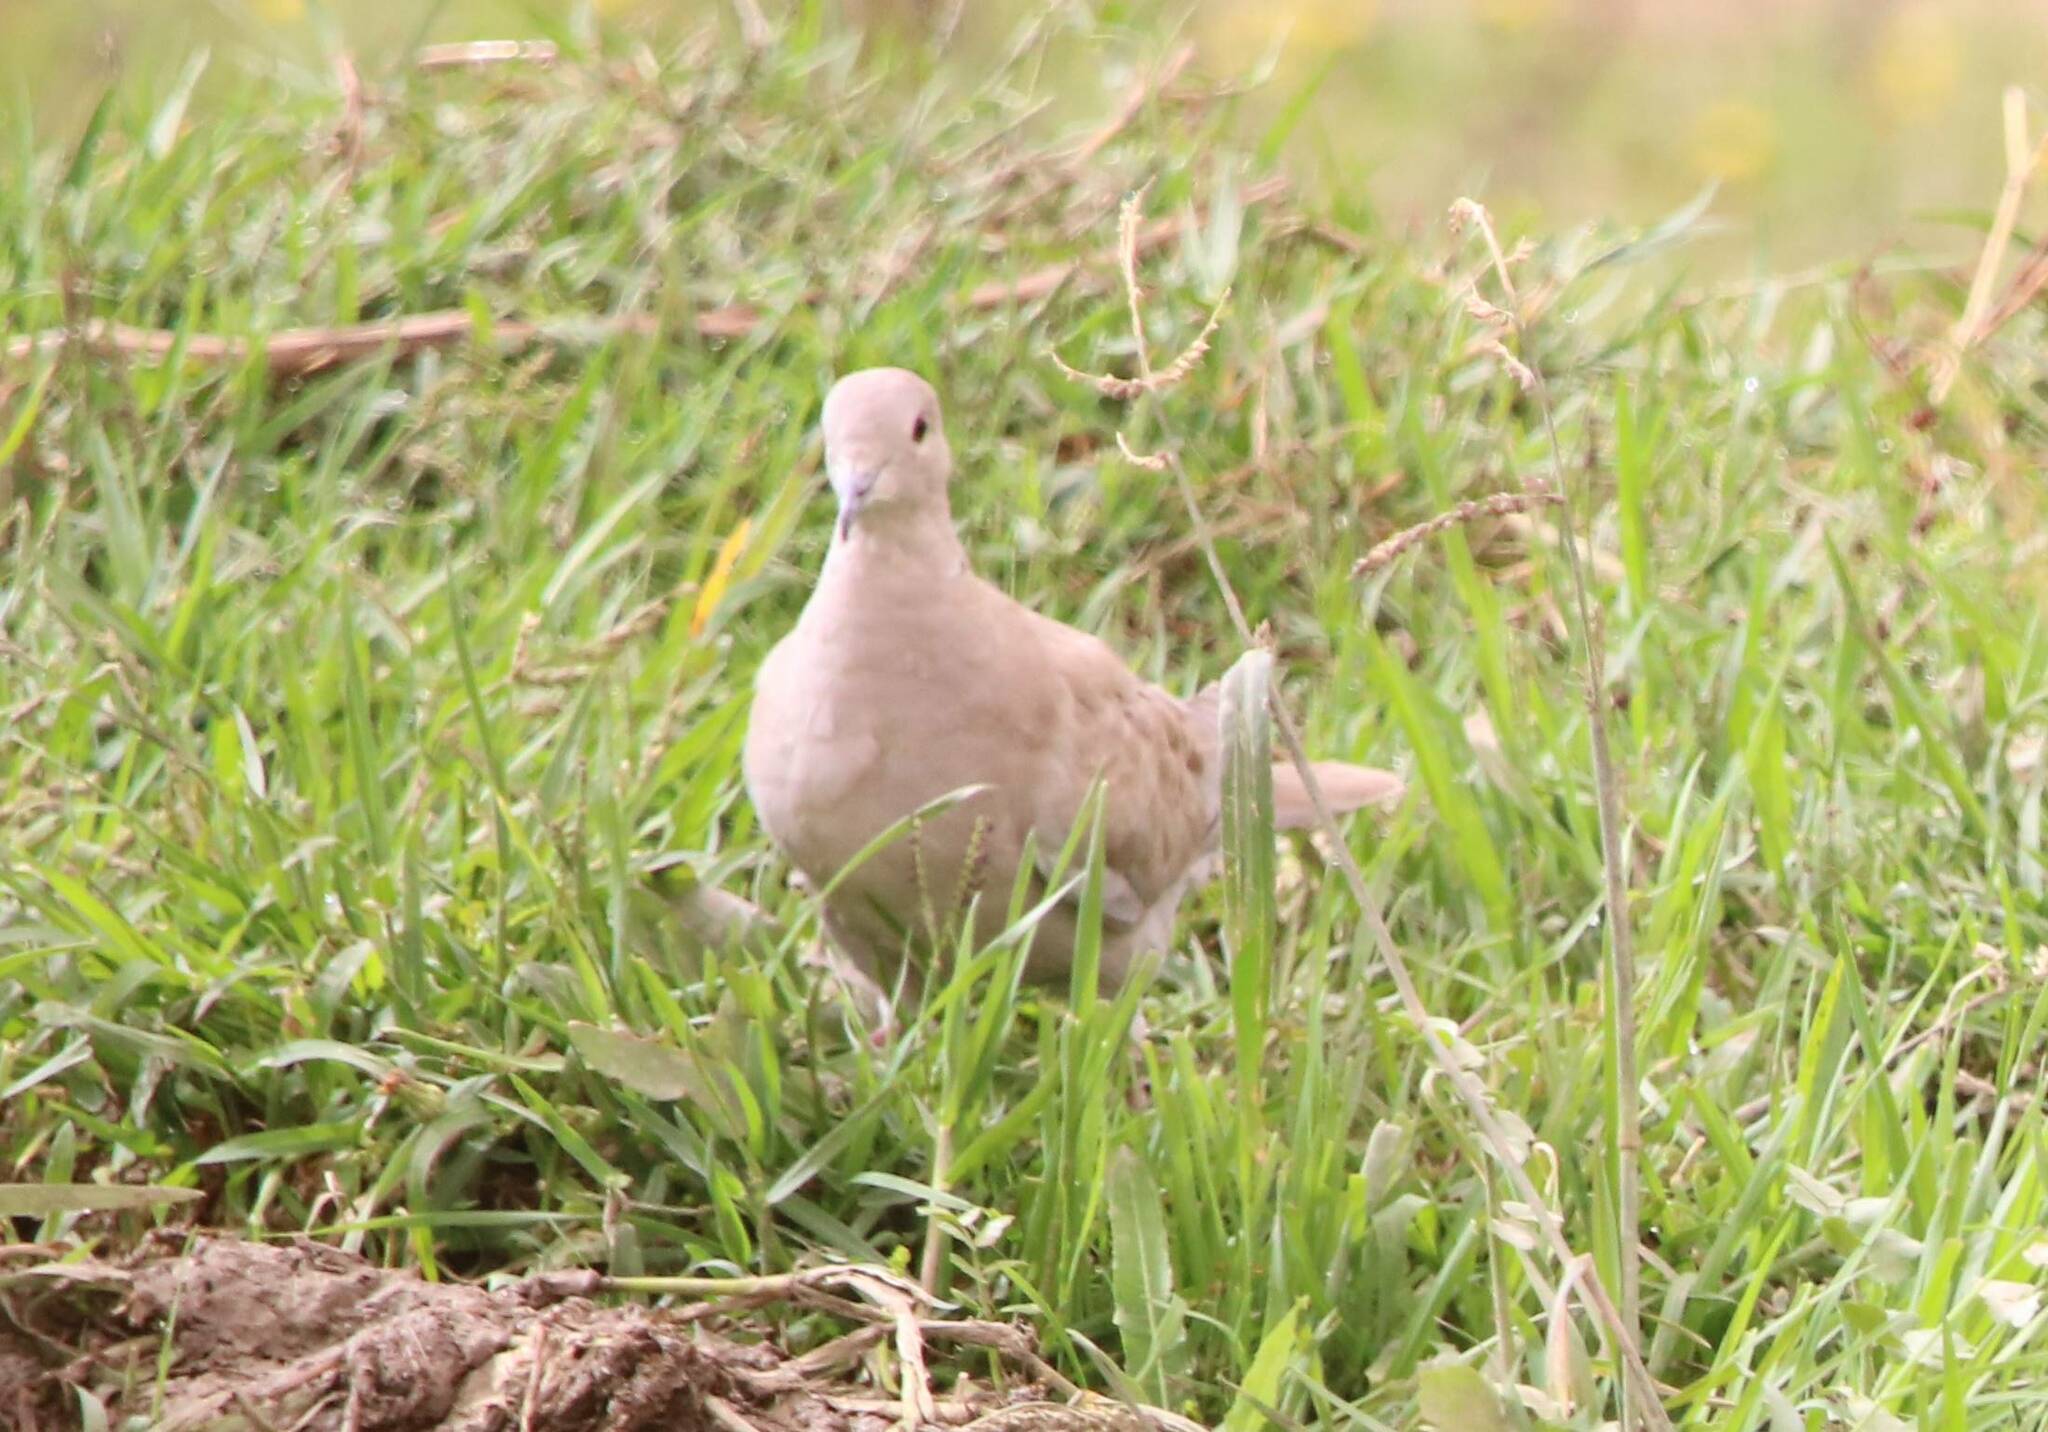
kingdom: Animalia
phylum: Chordata
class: Aves
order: Columbiformes
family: Columbidae
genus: Streptopelia
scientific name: Streptopelia decaocto
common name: Eurasian collared dove
